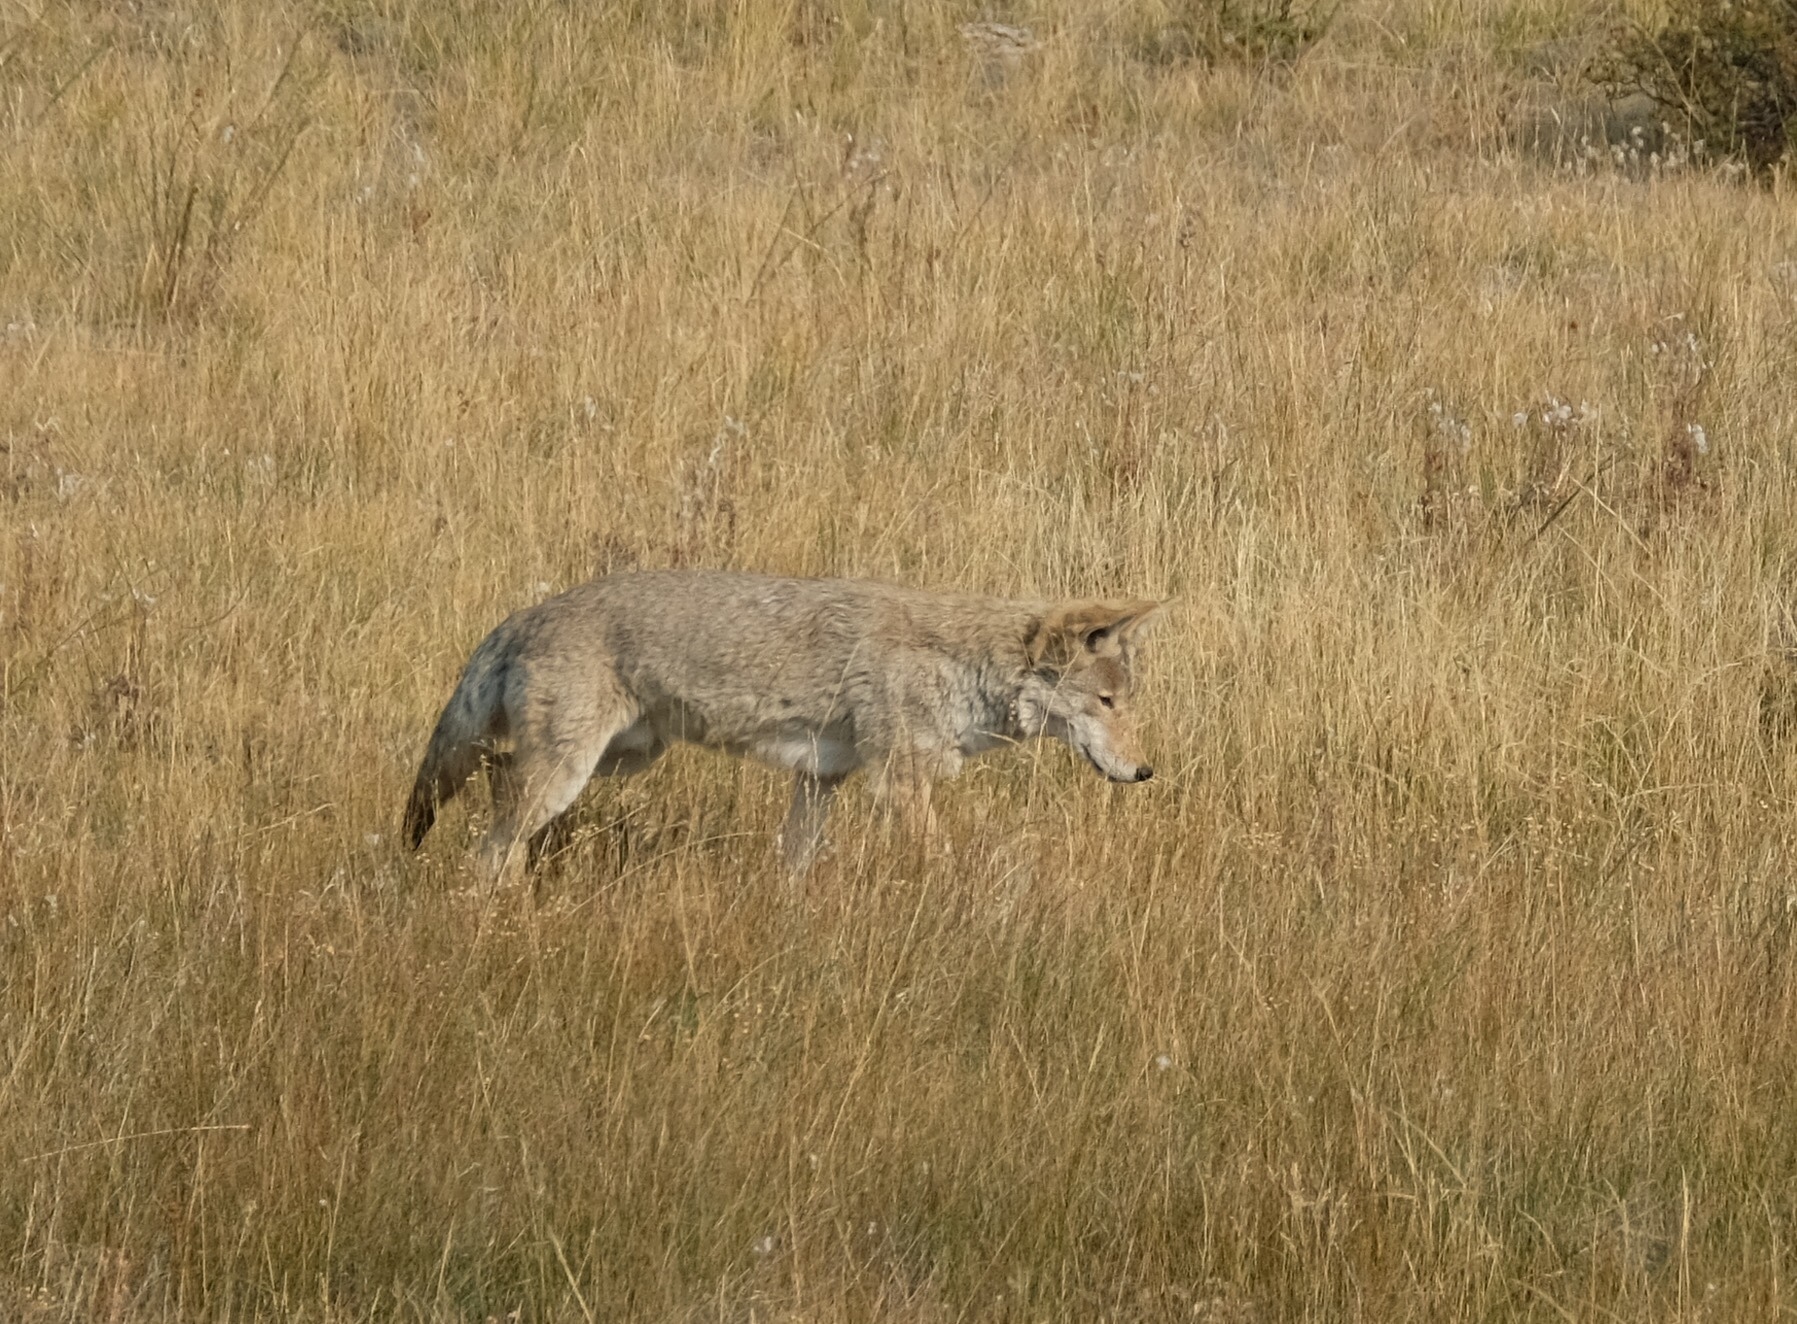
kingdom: Animalia
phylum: Chordata
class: Mammalia
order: Carnivora
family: Canidae
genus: Canis
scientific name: Canis latrans
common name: Coyote
